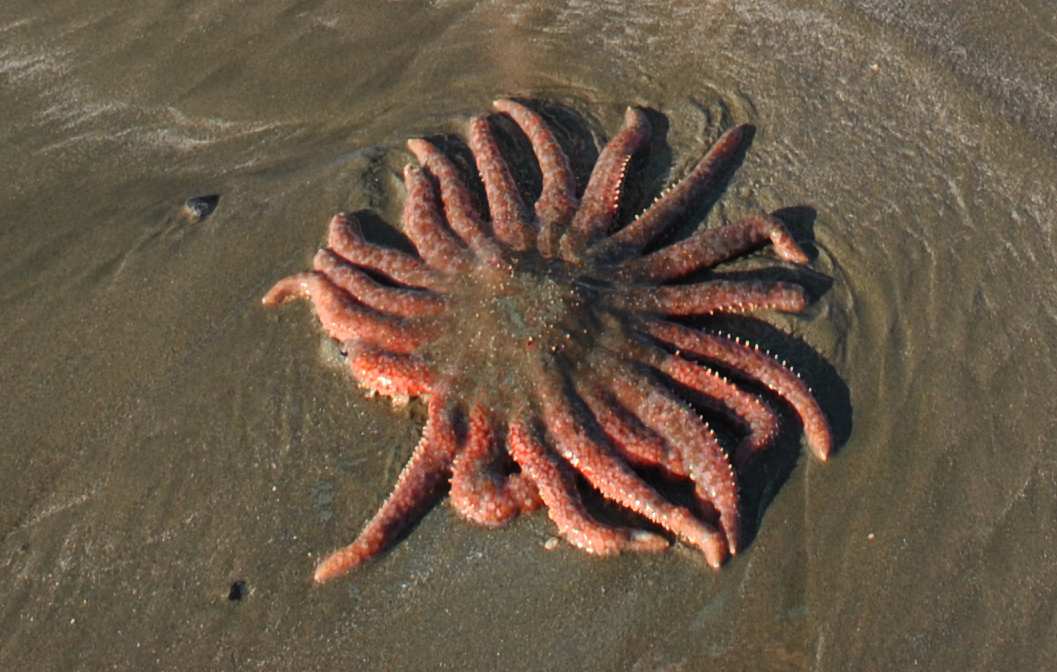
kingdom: Animalia
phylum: Echinodermata
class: Asteroidea
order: Forcipulatida
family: Asteriidae
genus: Pycnopodia
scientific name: Pycnopodia helianthoides
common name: Rag mop
